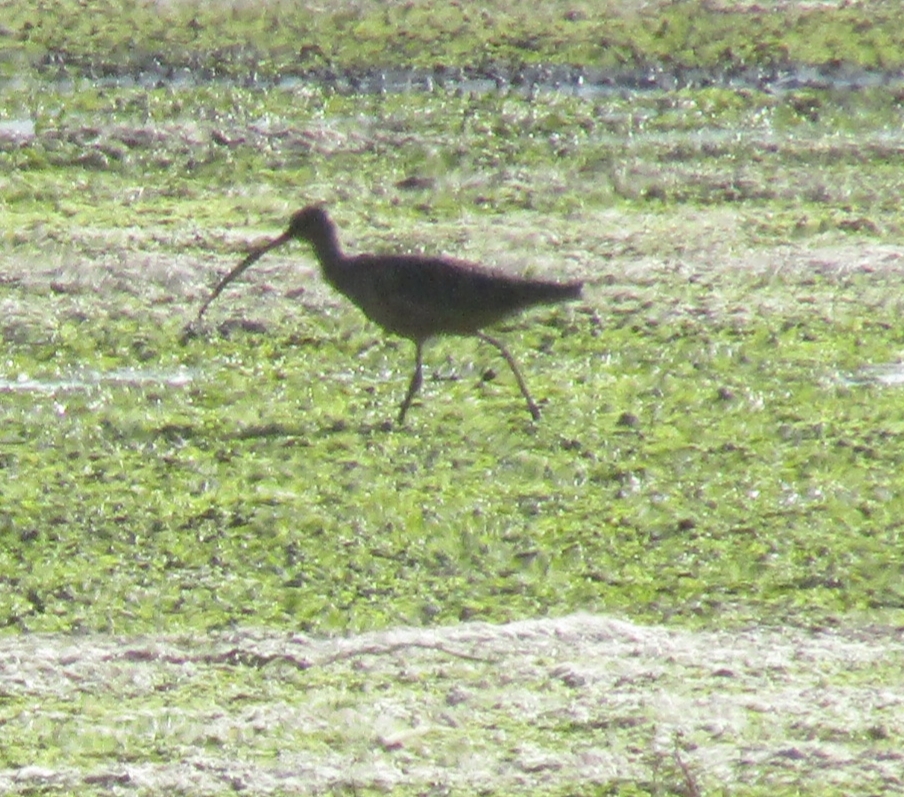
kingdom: Animalia
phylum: Chordata
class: Aves
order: Charadriiformes
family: Scolopacidae
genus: Numenius
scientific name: Numenius americanus
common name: Long-billed curlew
